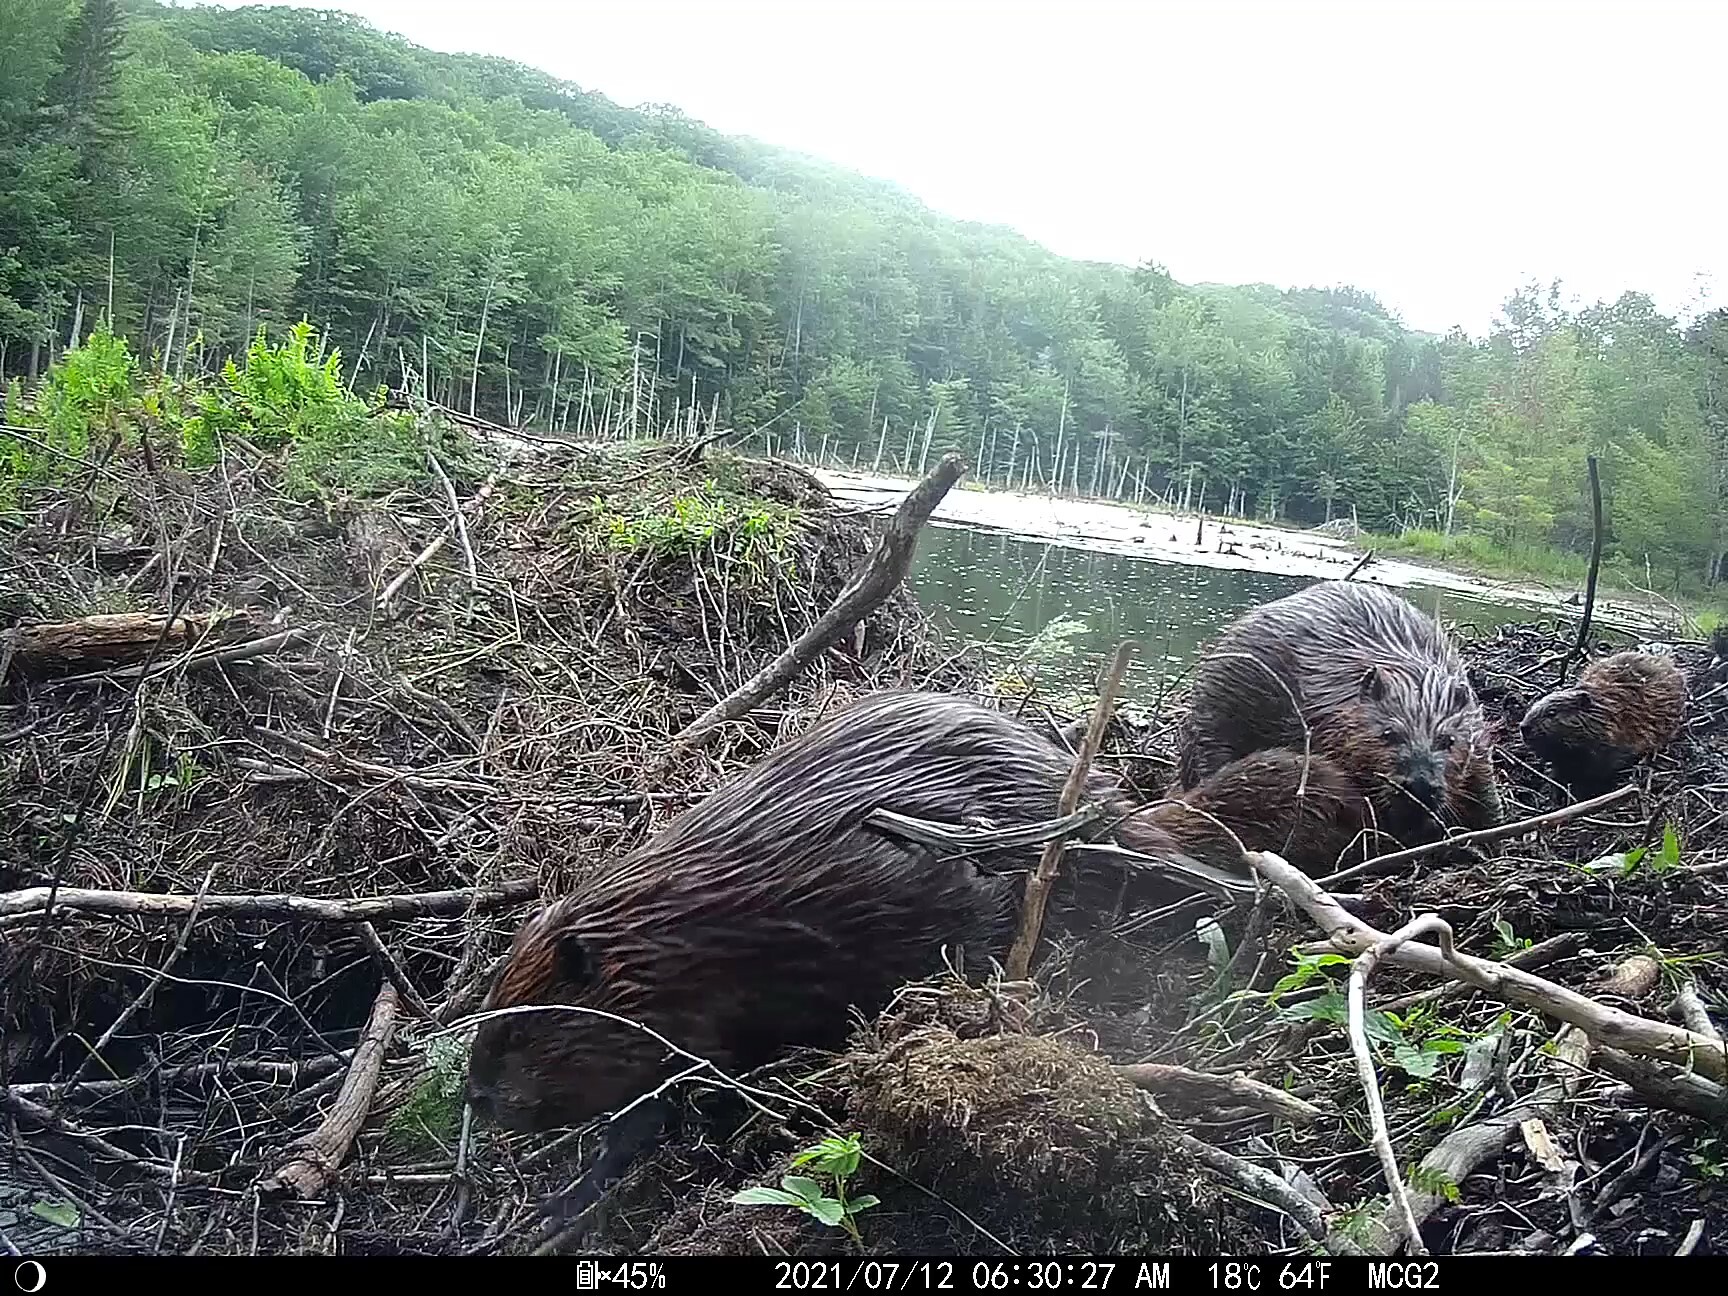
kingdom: Animalia
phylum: Chordata
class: Mammalia
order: Rodentia
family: Castoridae
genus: Castor
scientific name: Castor canadensis
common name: American beaver
